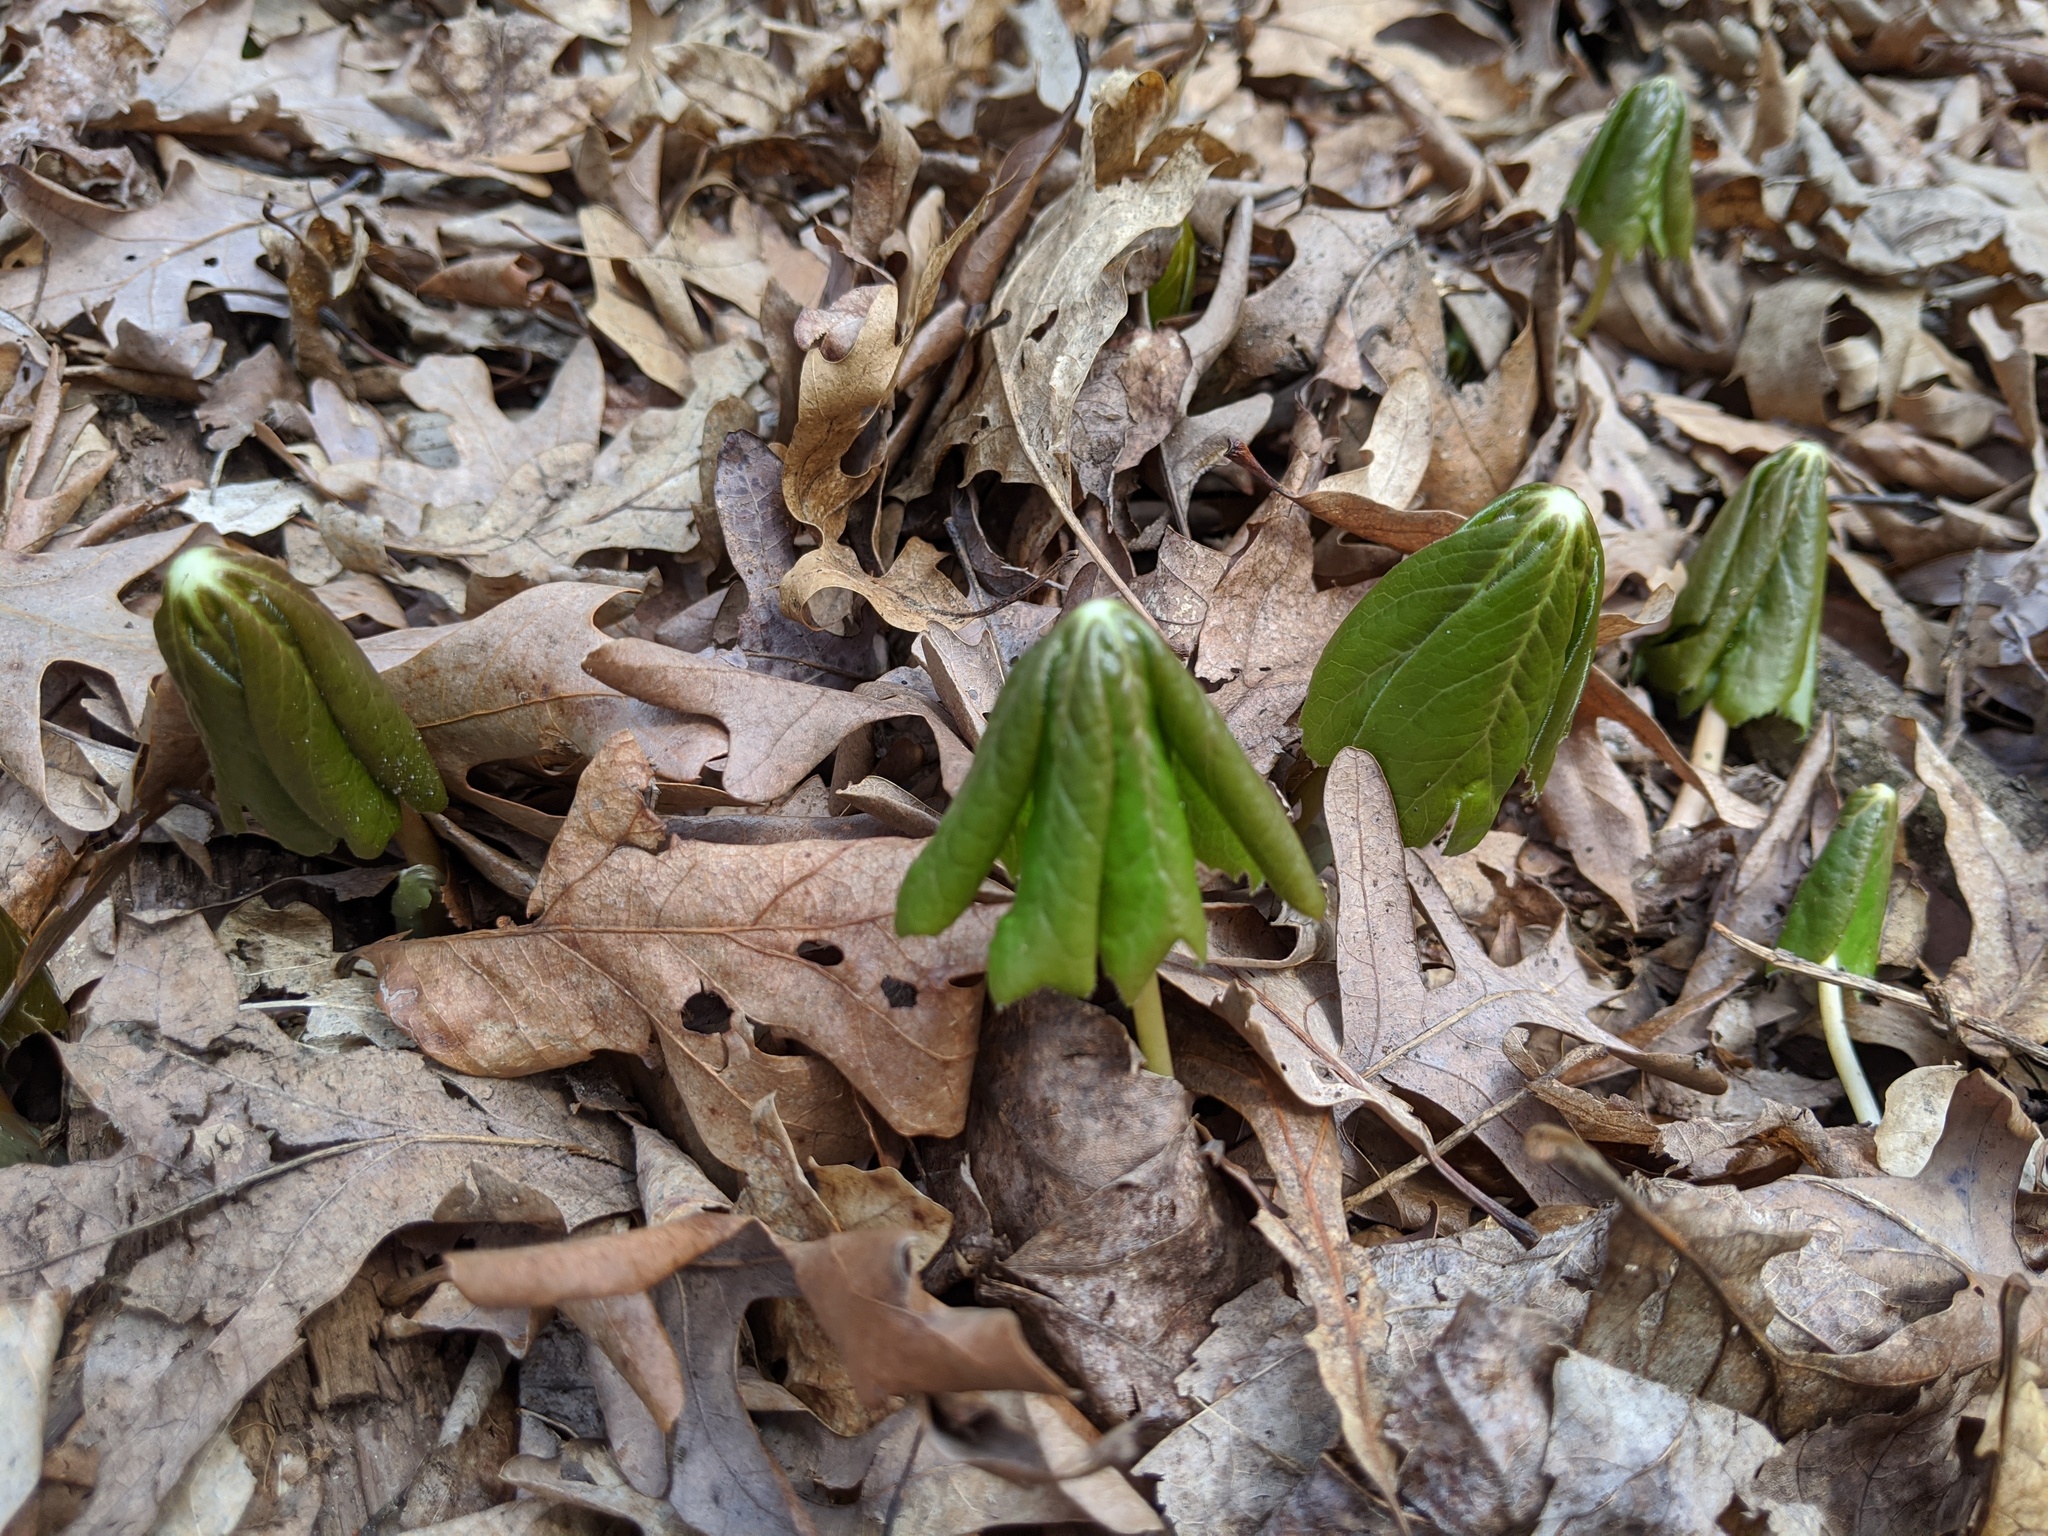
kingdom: Plantae
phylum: Tracheophyta
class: Magnoliopsida
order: Ranunculales
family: Berberidaceae
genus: Podophyllum
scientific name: Podophyllum peltatum
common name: Wild mandrake
